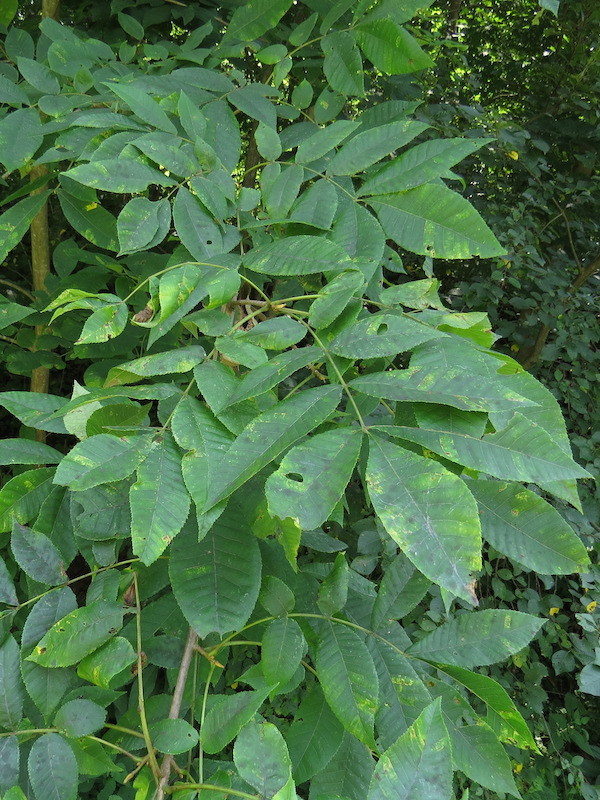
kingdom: Plantae
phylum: Tracheophyta
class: Magnoliopsida
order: Fagales
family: Juglandaceae
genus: Carya
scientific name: Carya cordiformis
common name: Bitternut hickory
